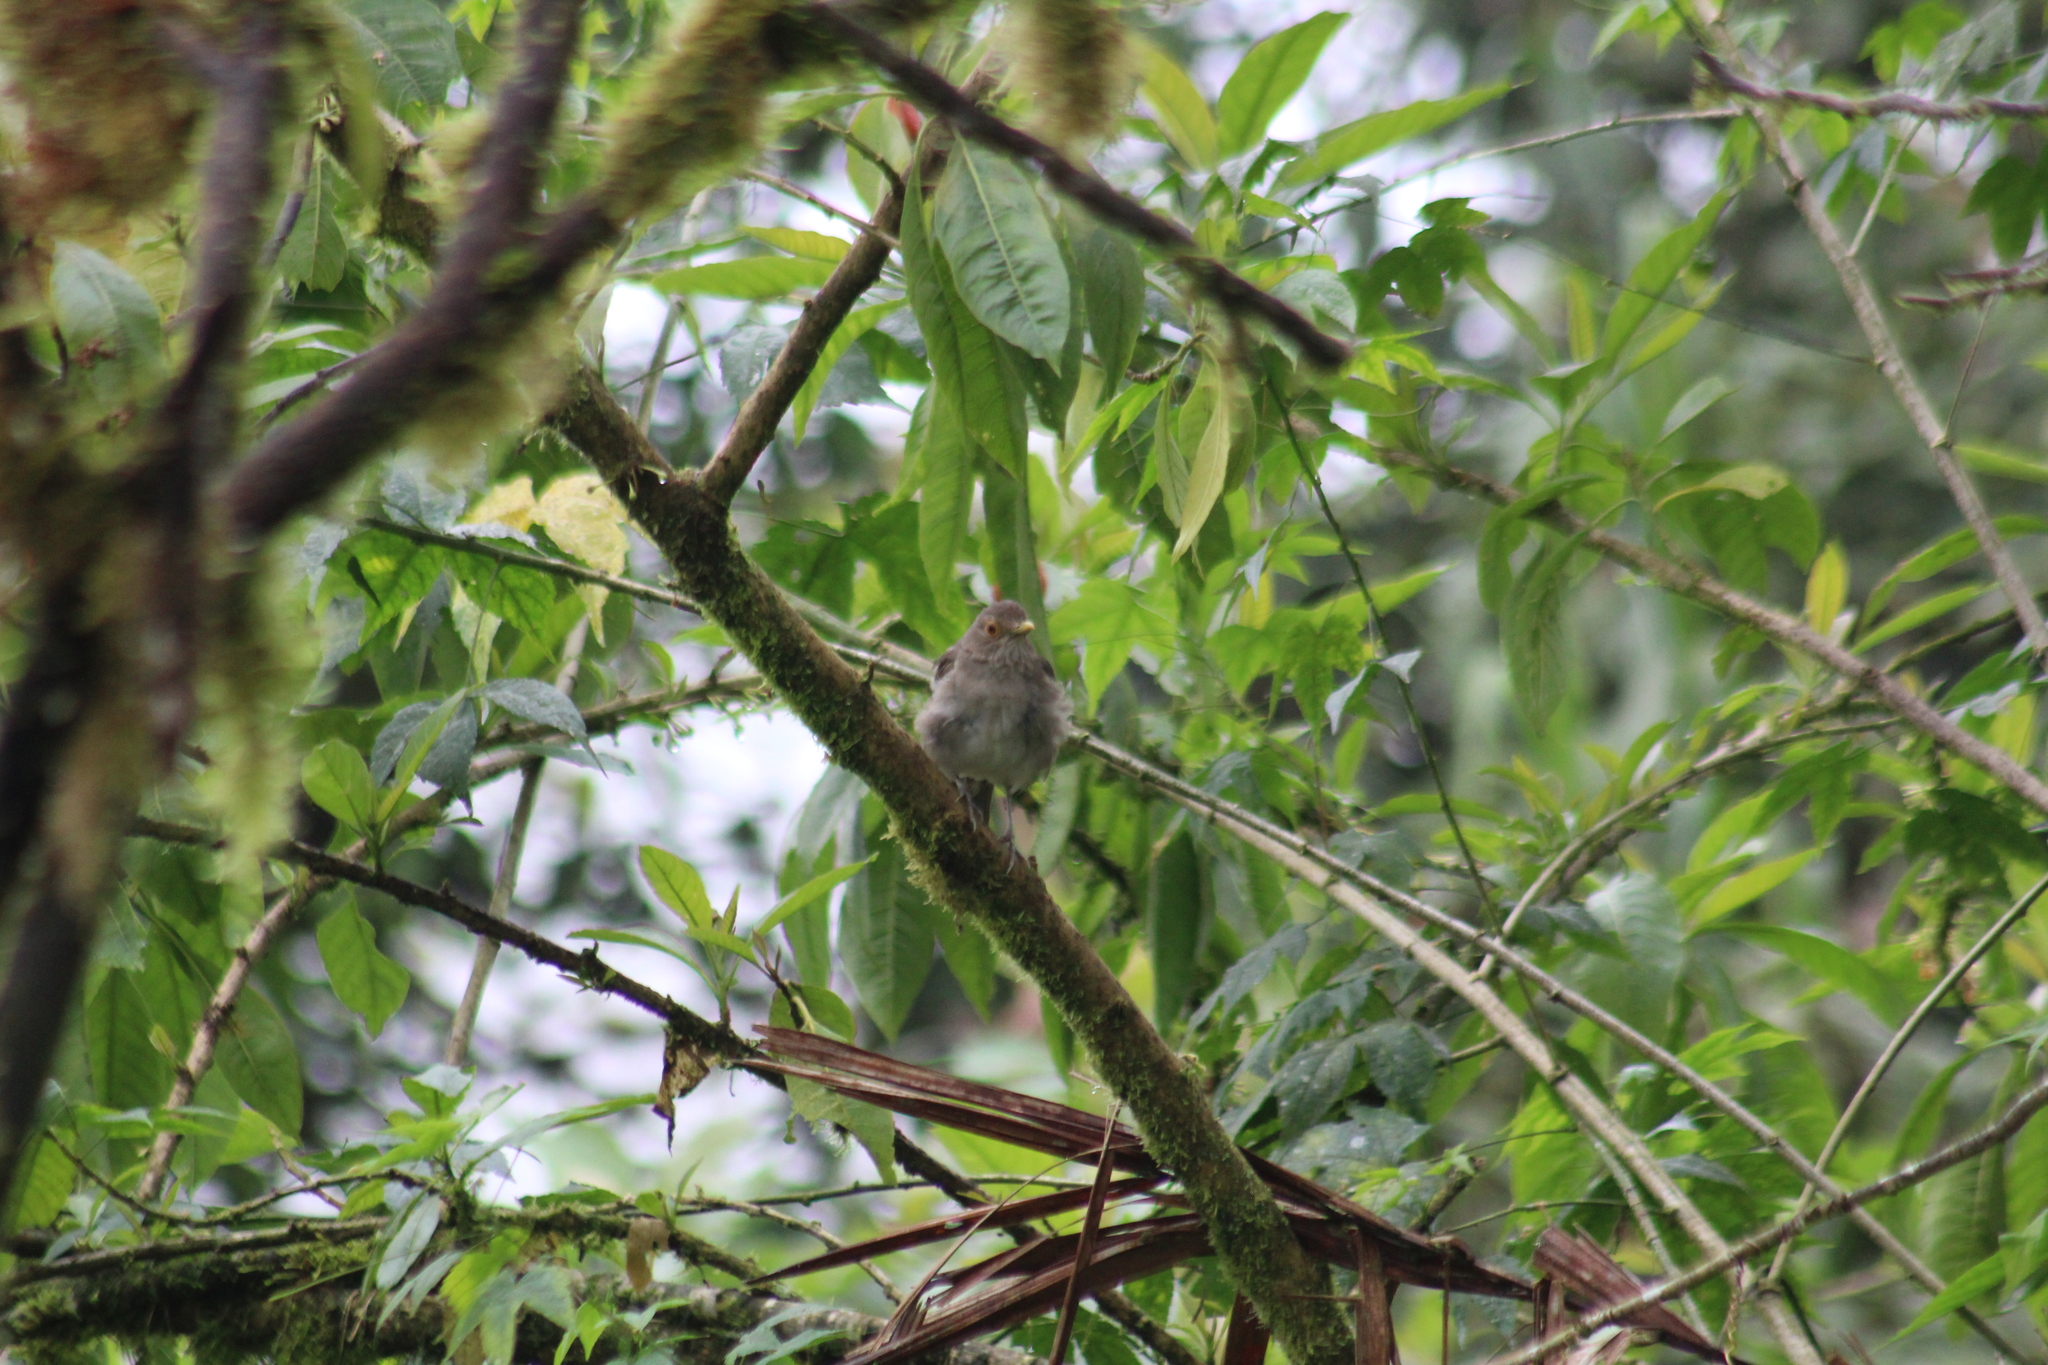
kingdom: Animalia
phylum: Chordata
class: Aves
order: Passeriformes
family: Turdidae
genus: Turdus
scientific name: Turdus maculirostris
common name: Ecuadorian thrush
